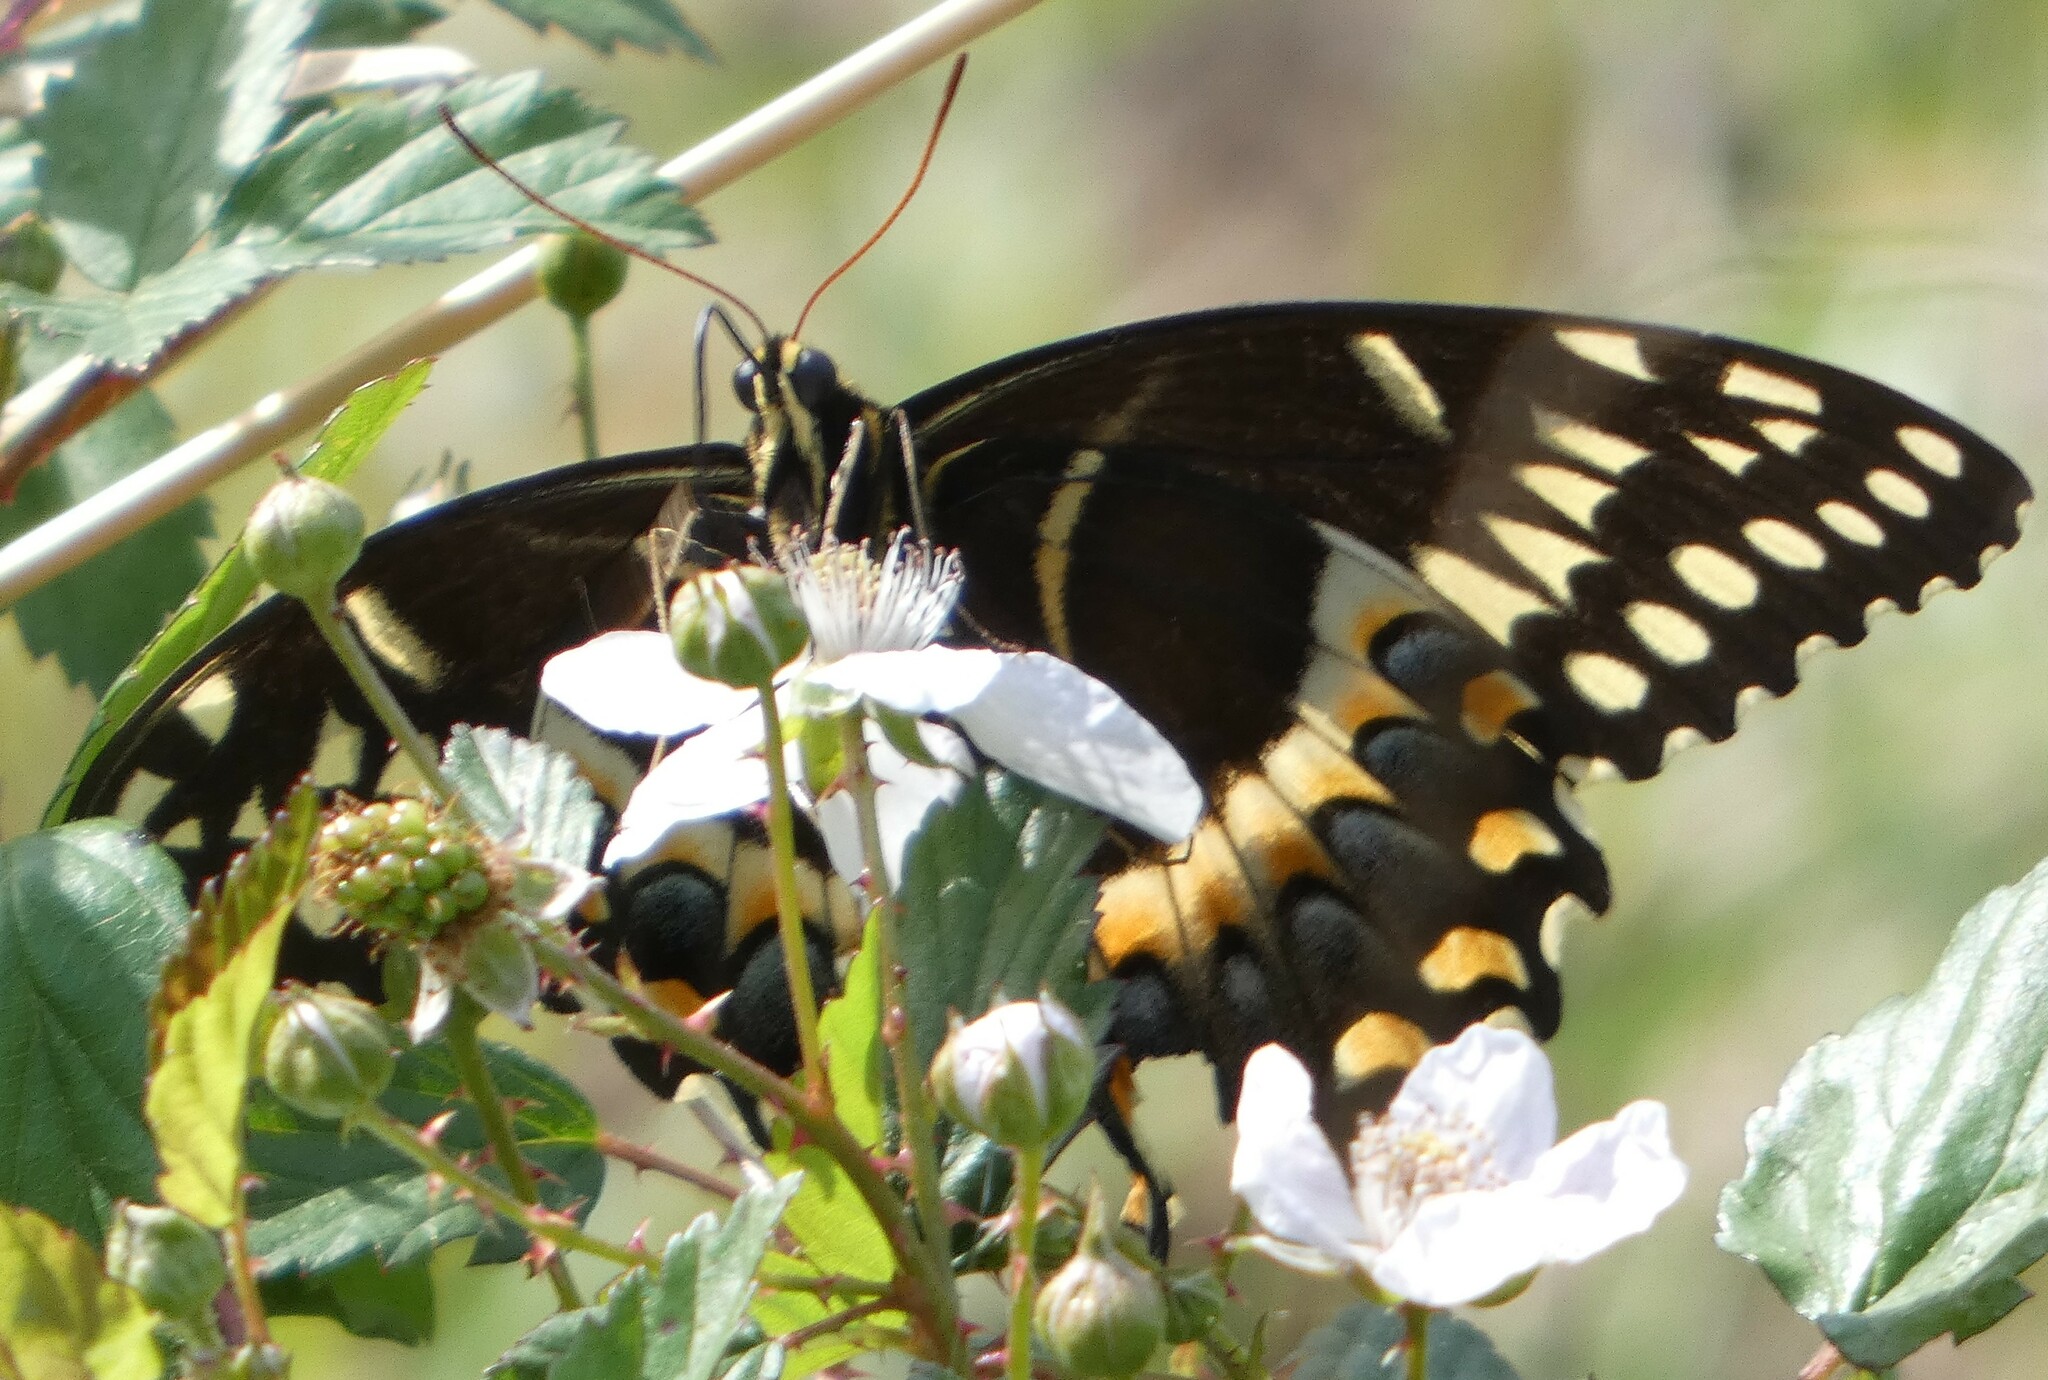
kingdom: Animalia
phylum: Arthropoda
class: Insecta
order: Lepidoptera
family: Papilionidae
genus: Papilio
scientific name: Papilio palamedes
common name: Palamedes swallowtail
